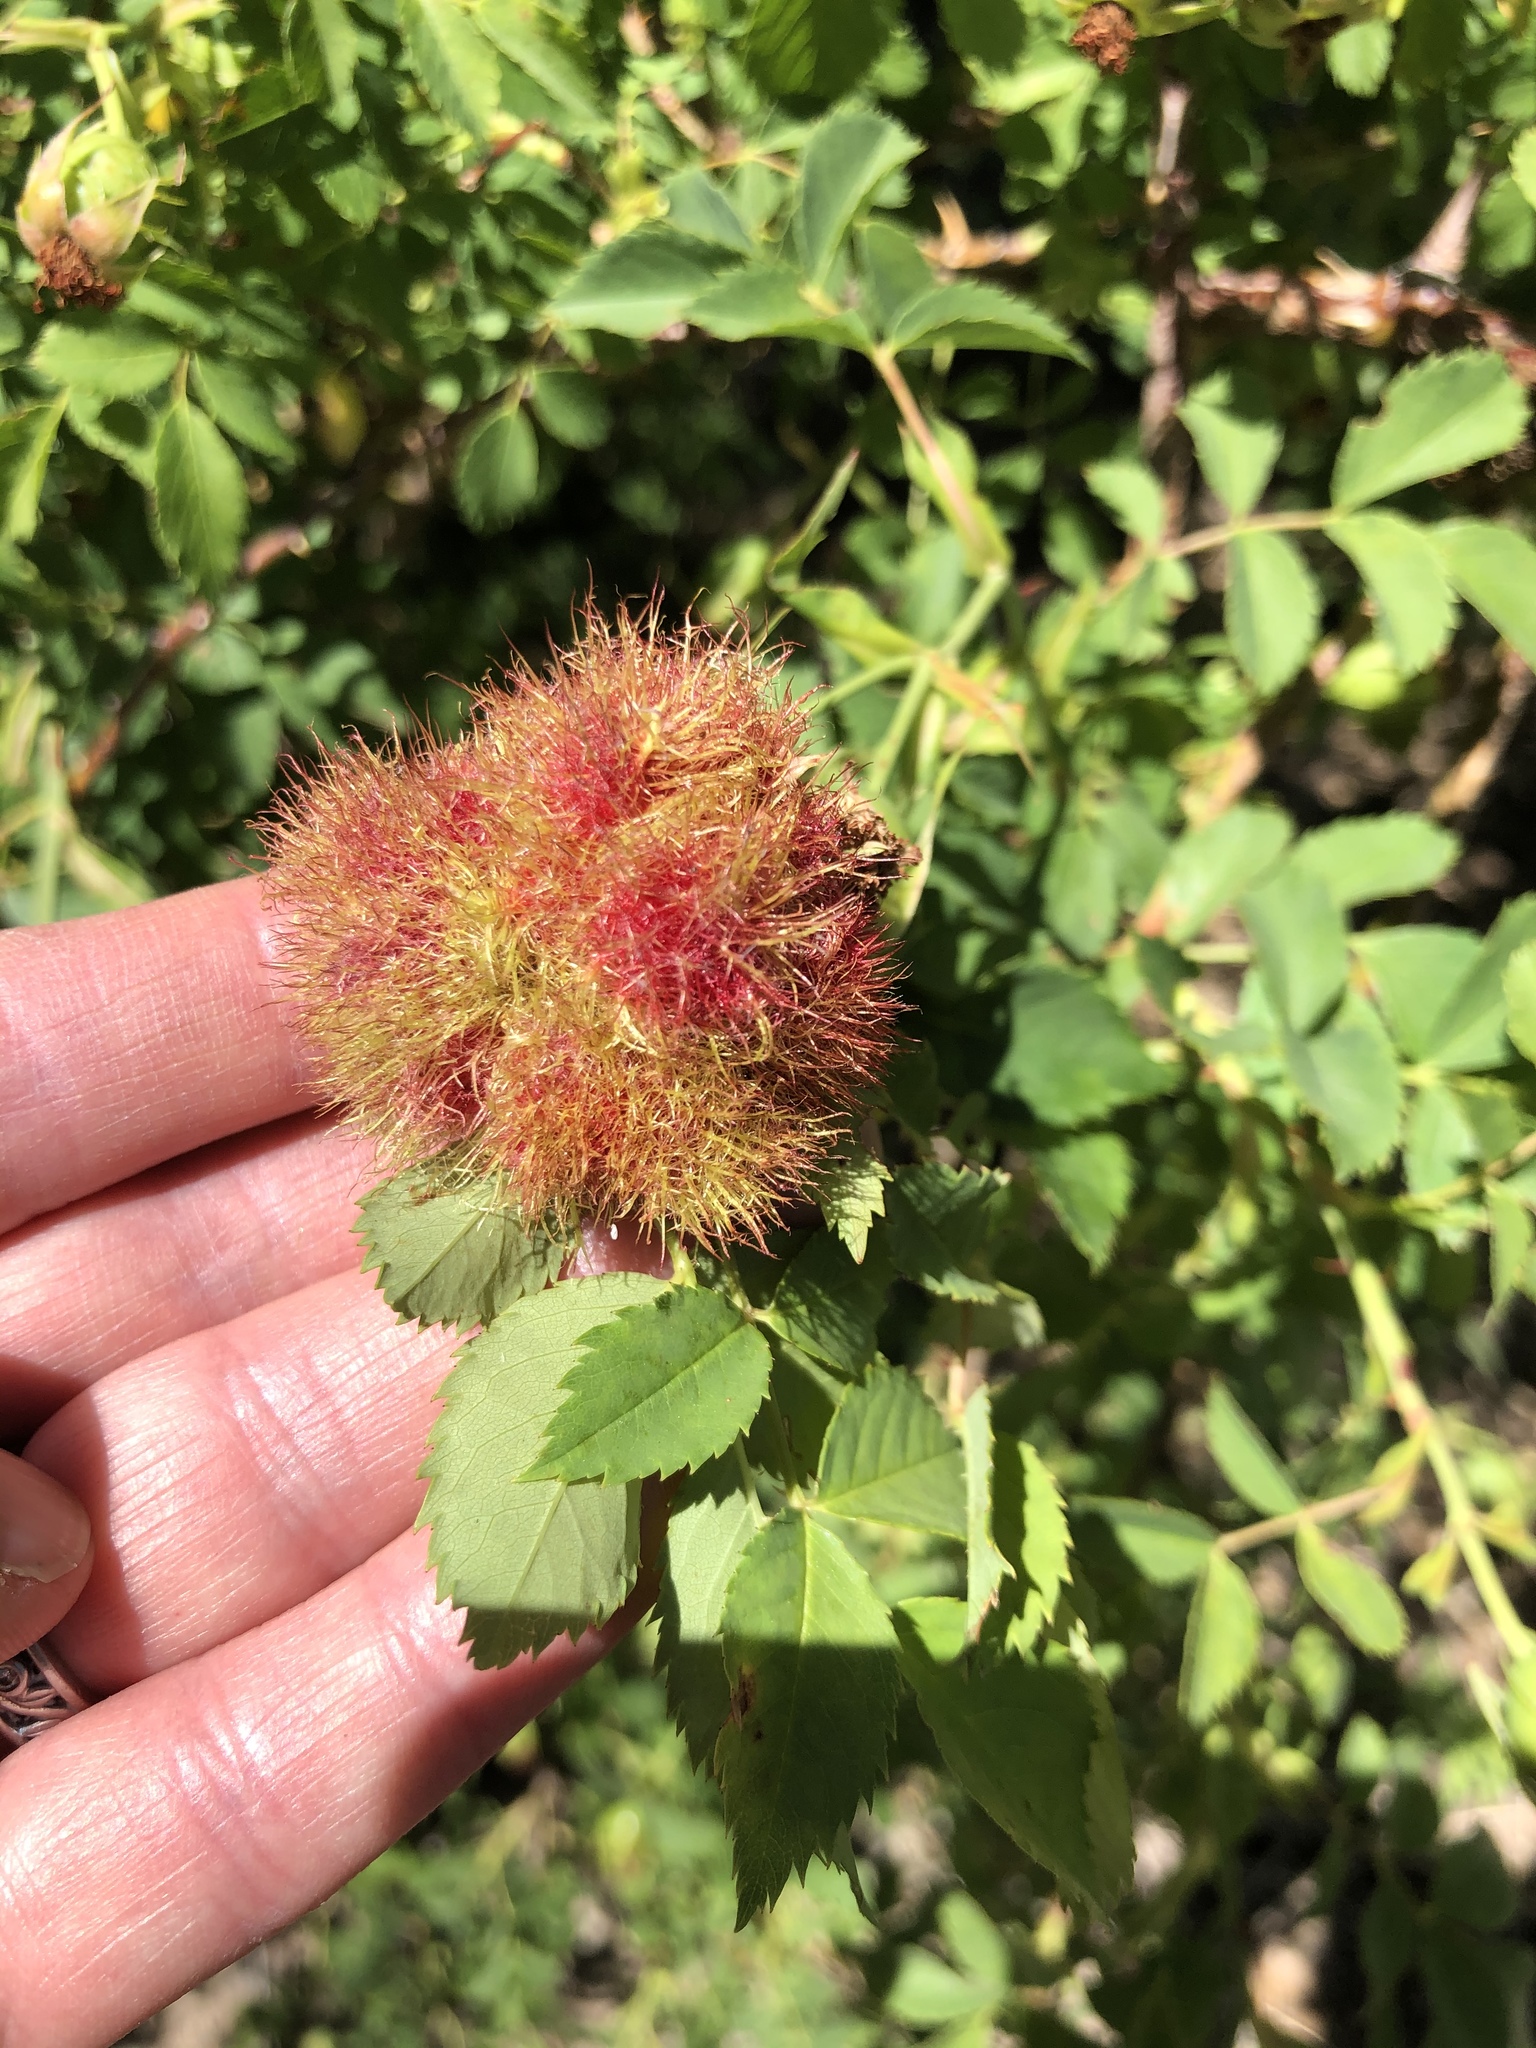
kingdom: Animalia
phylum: Arthropoda
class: Insecta
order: Hymenoptera
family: Cynipidae
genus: Diplolepis
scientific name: Diplolepis rosae
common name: Bedeguar gall
